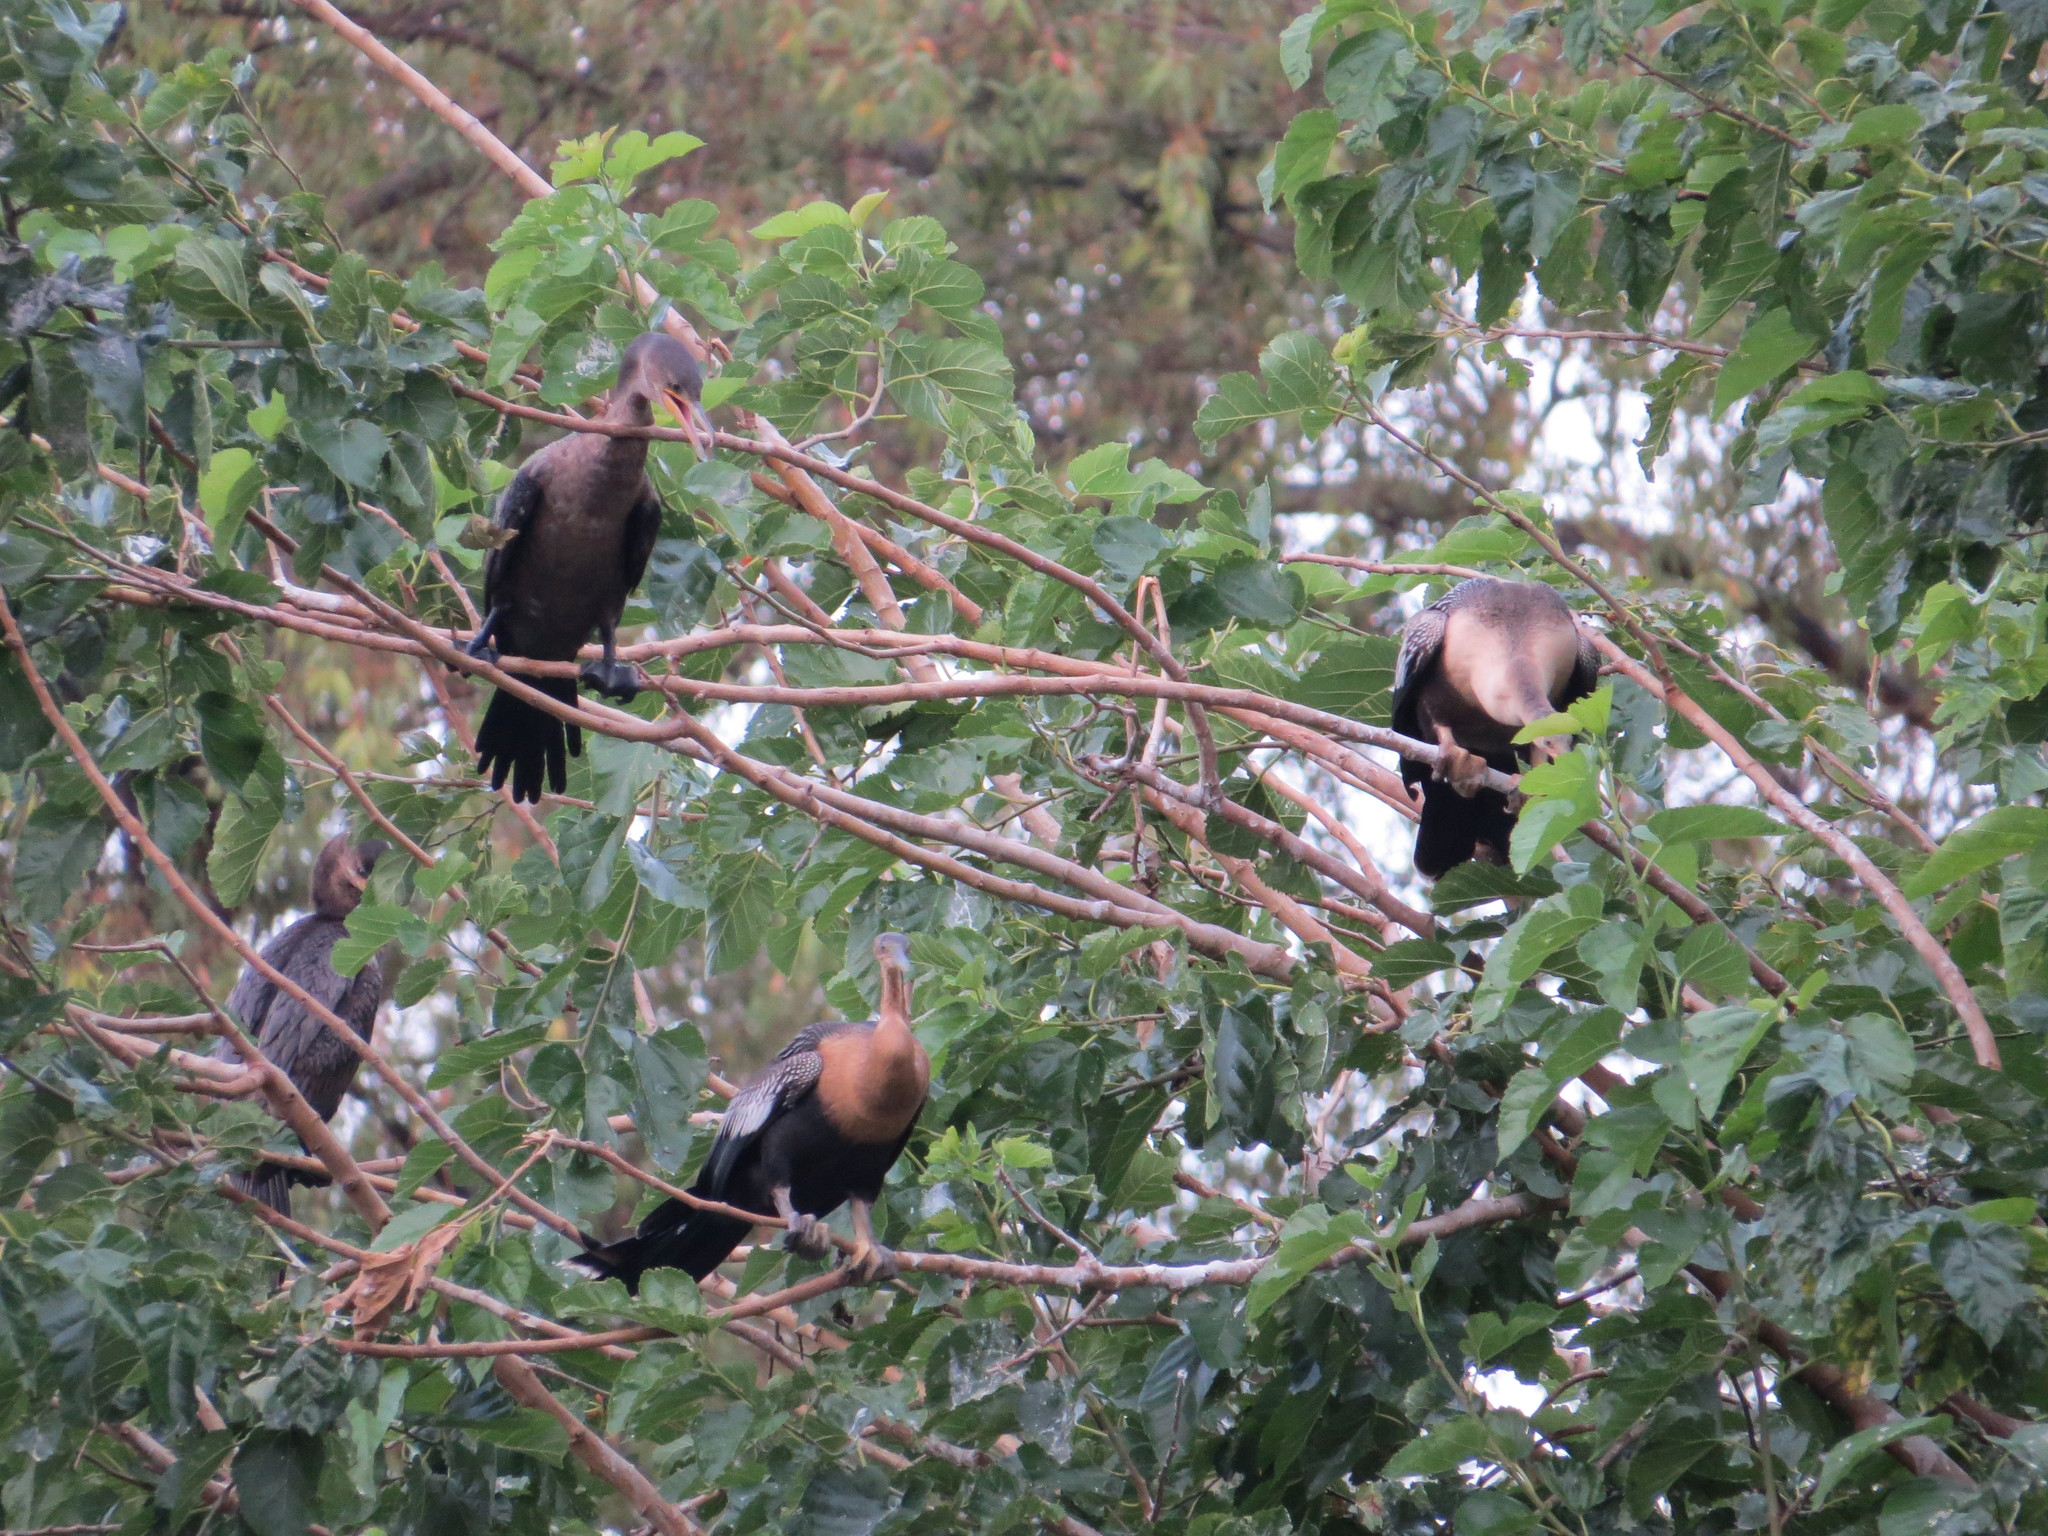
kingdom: Animalia
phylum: Chordata
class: Aves
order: Suliformes
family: Anhingidae
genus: Anhinga
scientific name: Anhinga anhinga
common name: Anhinga
